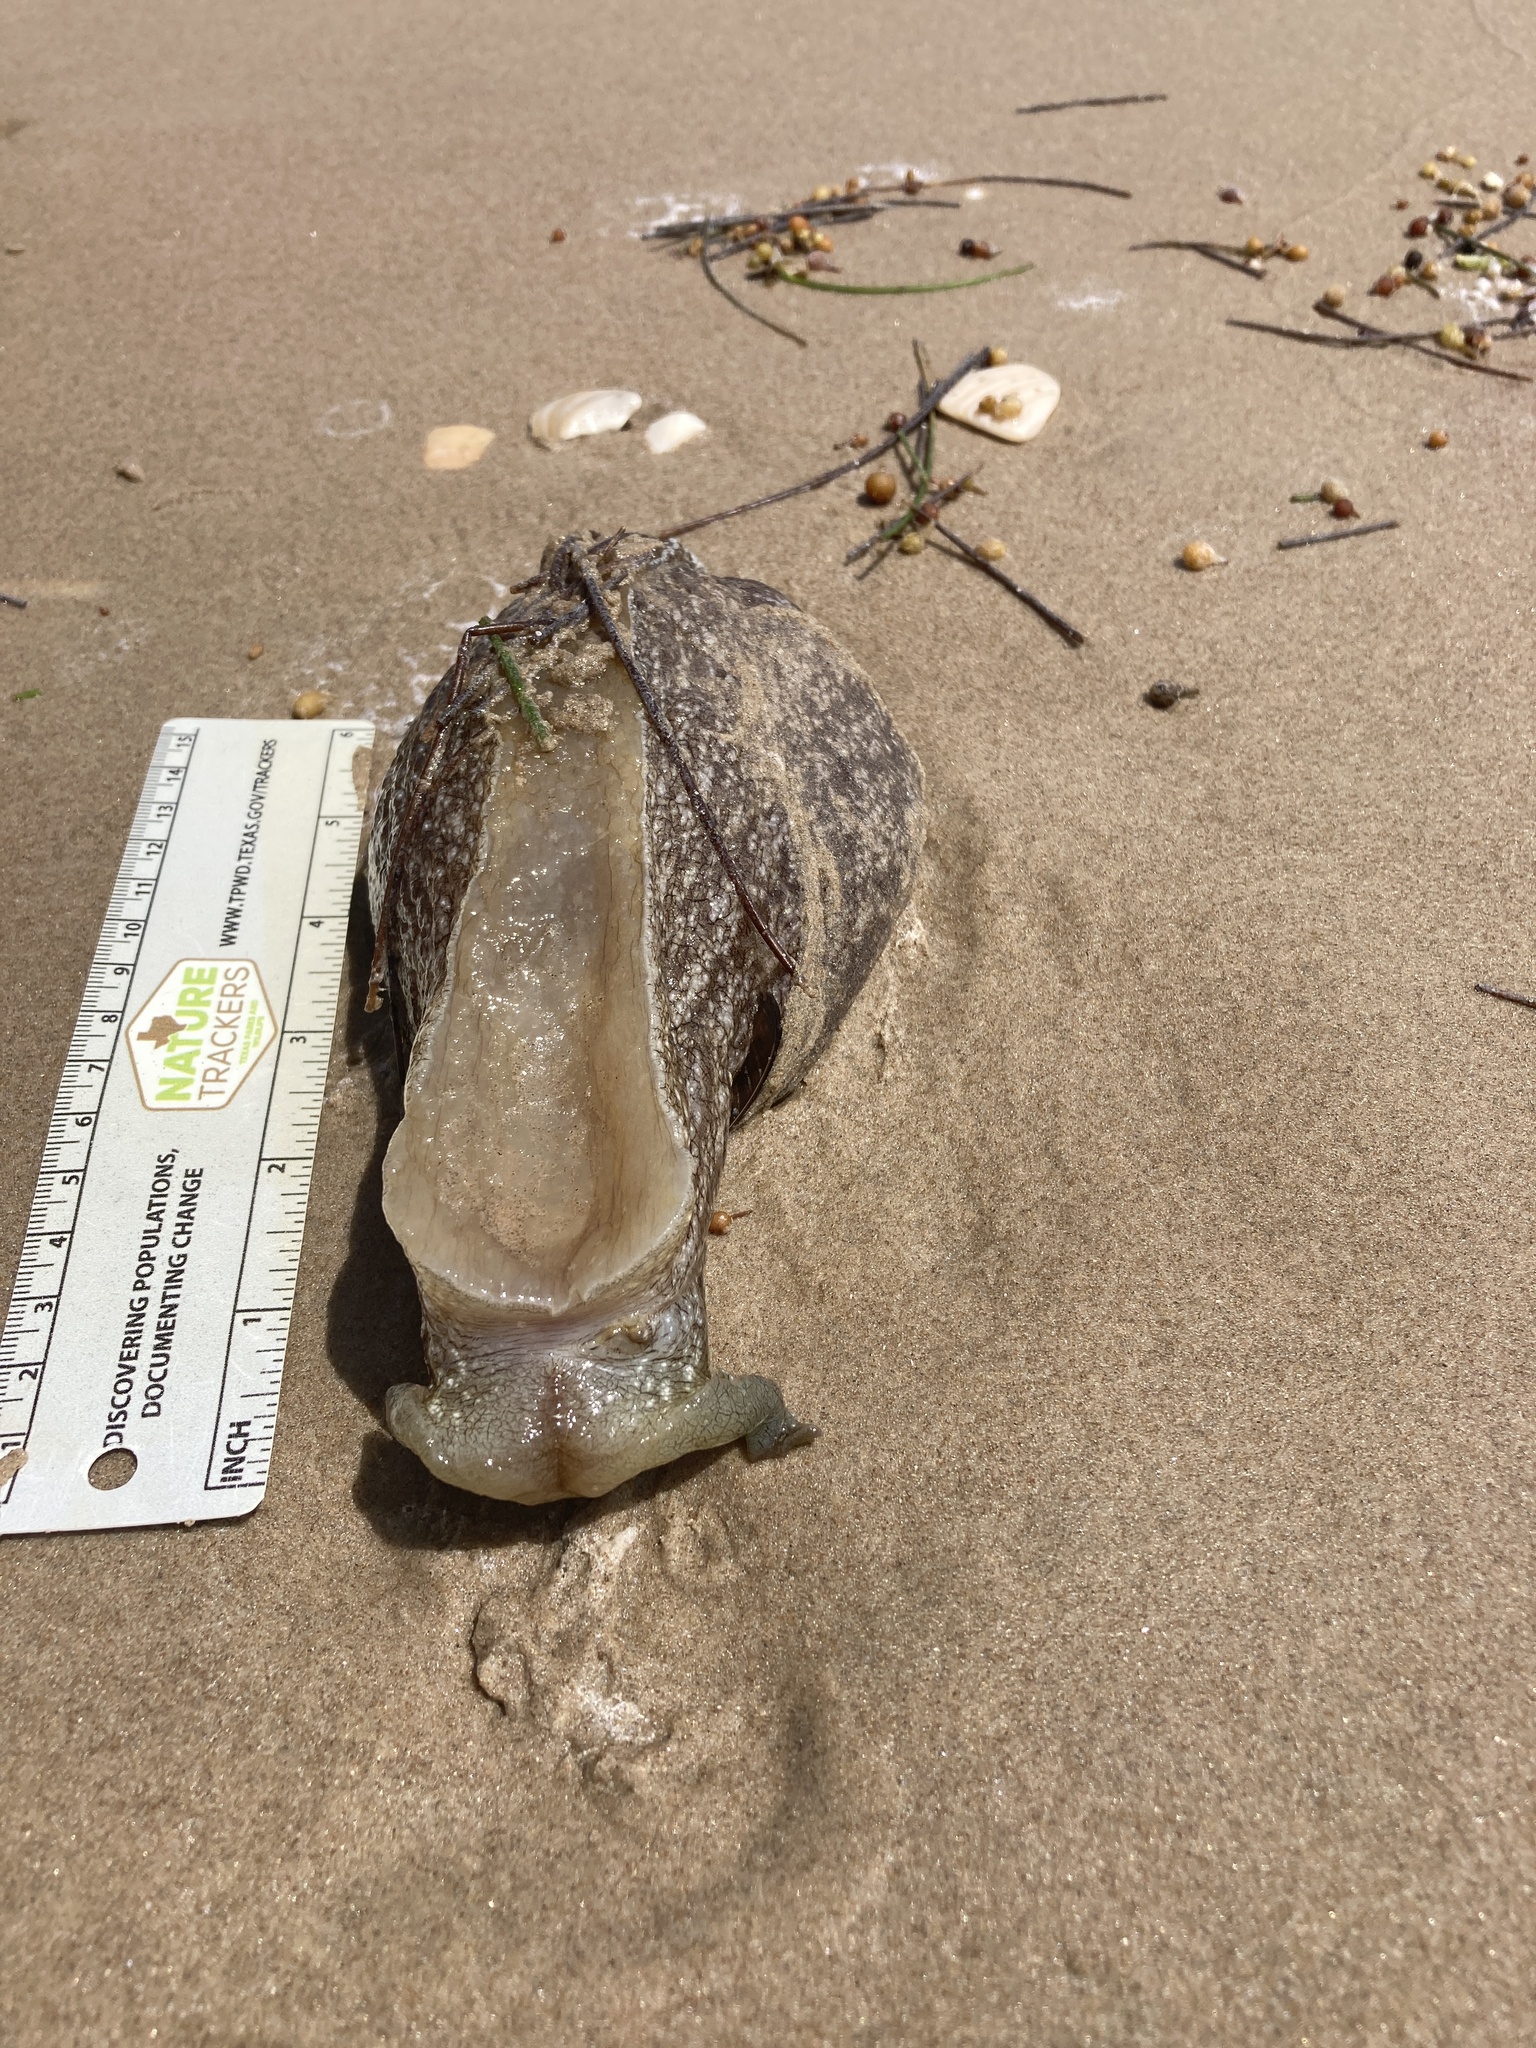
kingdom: Animalia
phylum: Mollusca
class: Gastropoda
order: Aplysiida
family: Aplysiidae
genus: Aplysia
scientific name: Aplysia brasiliana
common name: Mottled seahare
